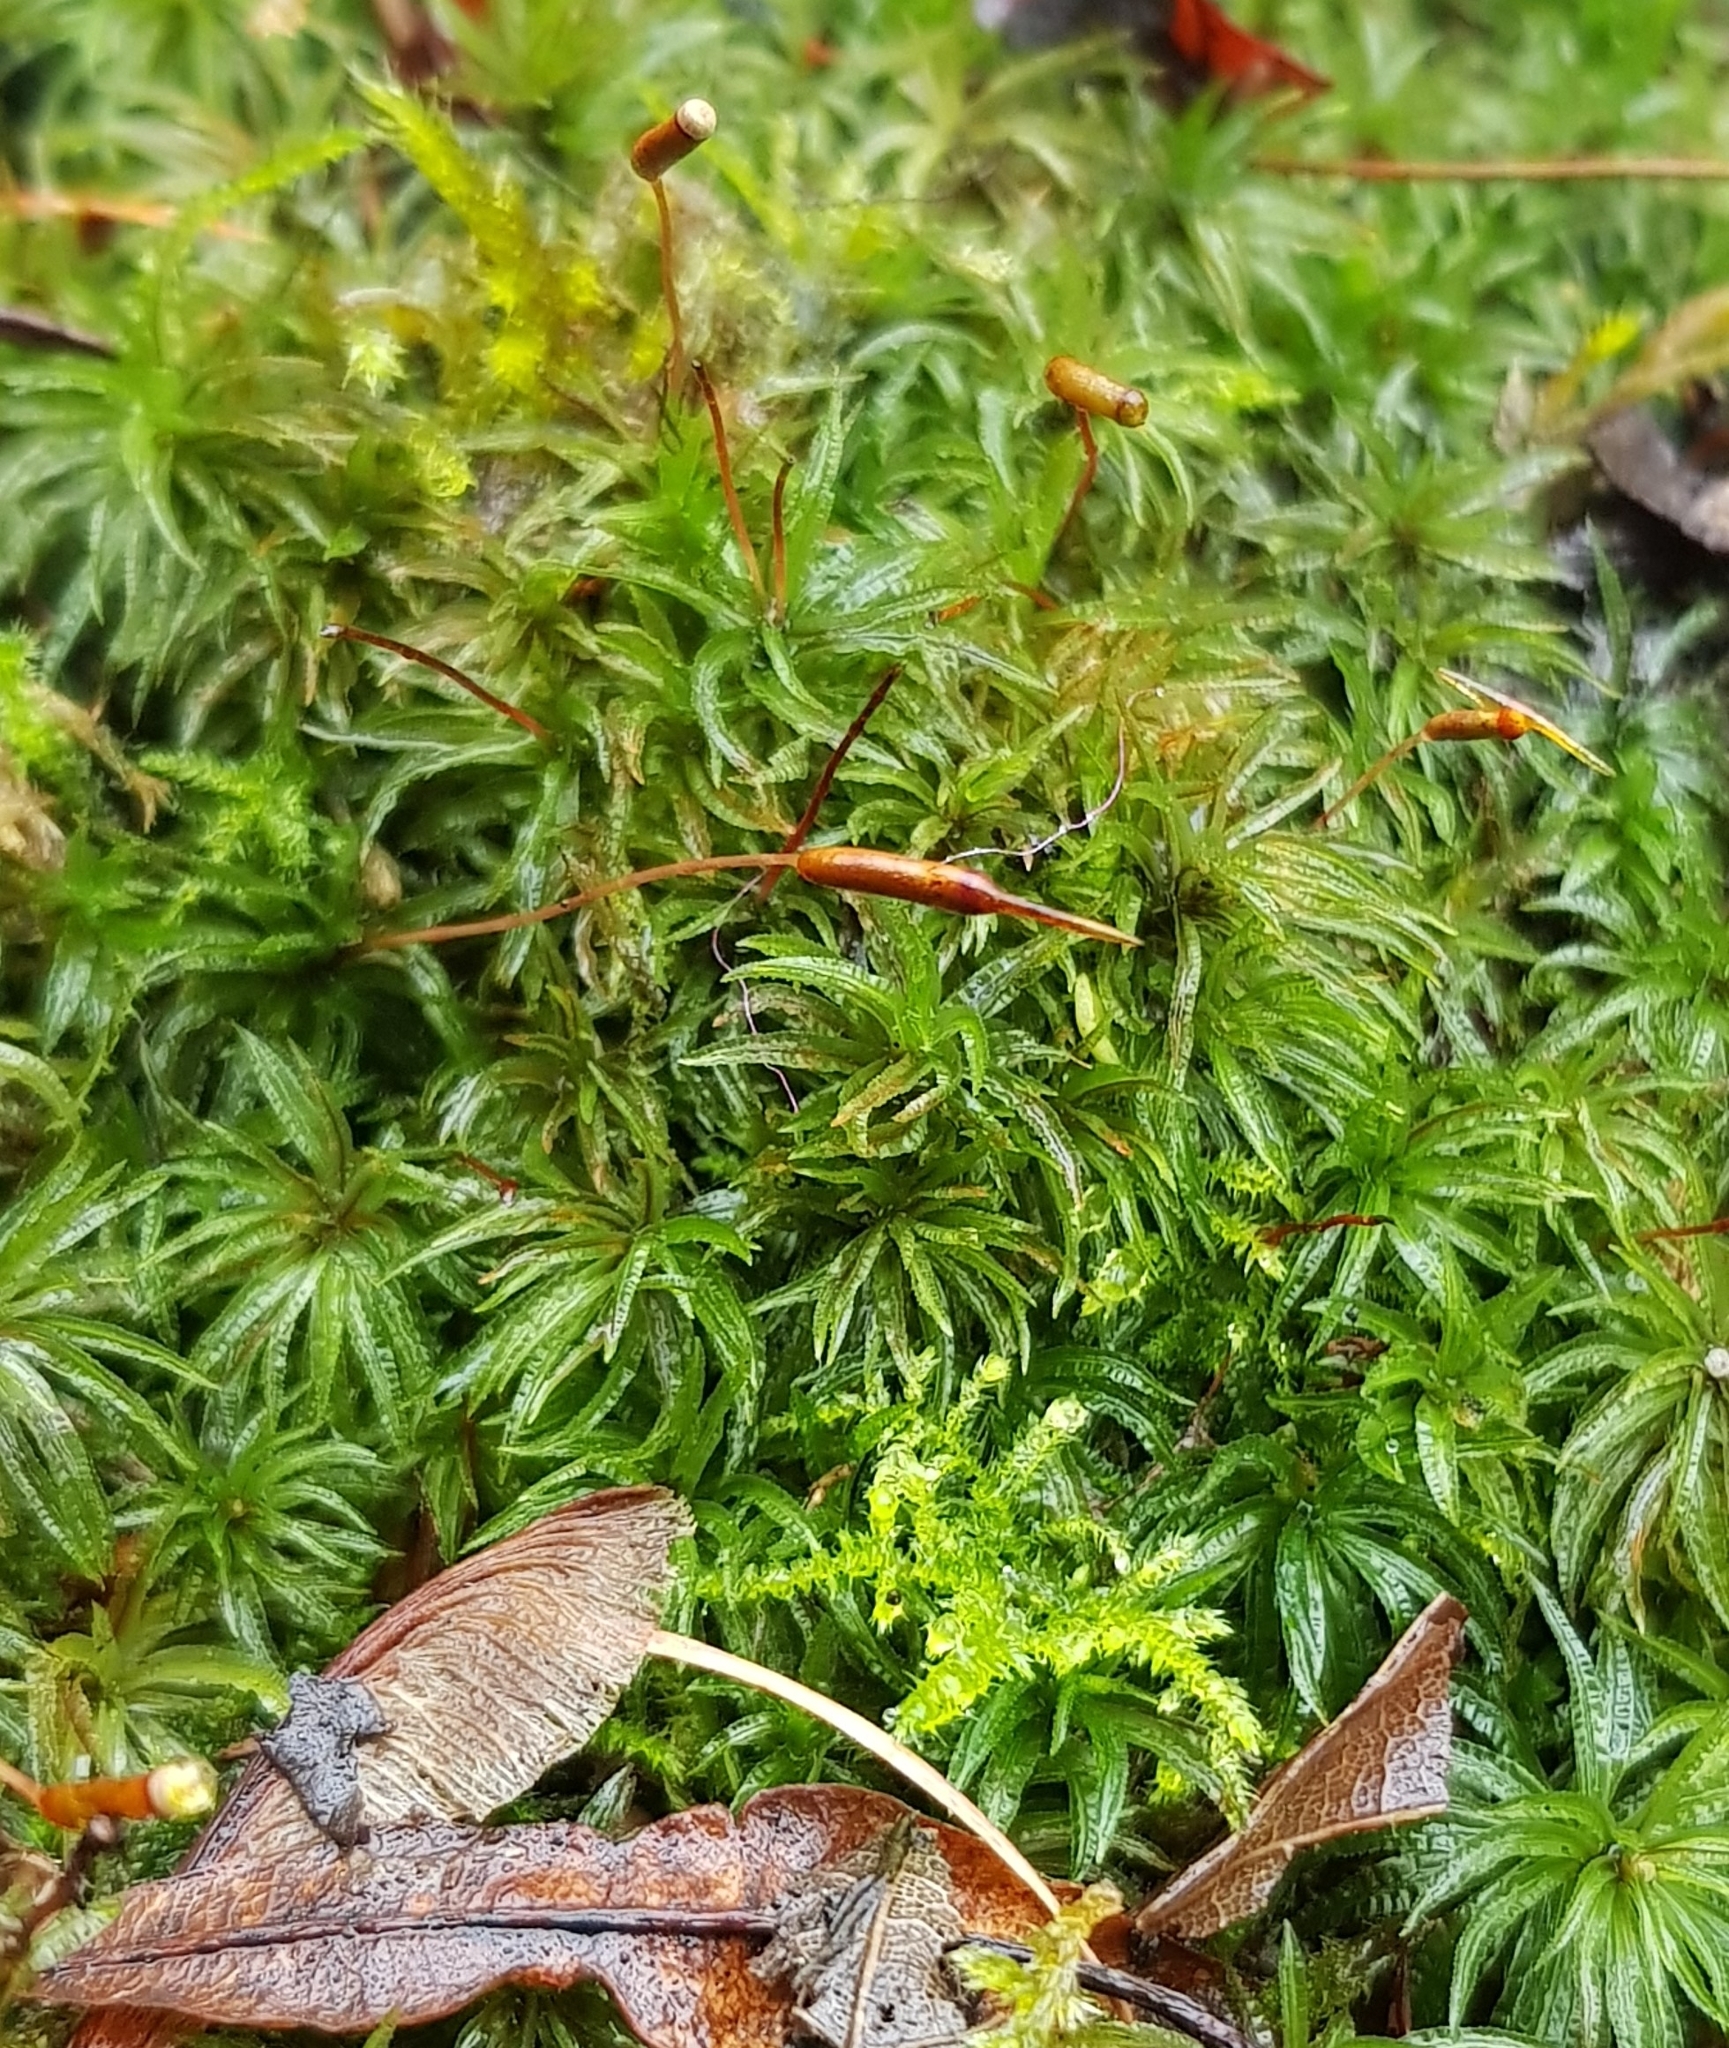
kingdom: Plantae
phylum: Bryophyta
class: Polytrichopsida
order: Polytrichales
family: Polytrichaceae
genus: Atrichum
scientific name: Atrichum undulatum
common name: Common smoothcap
